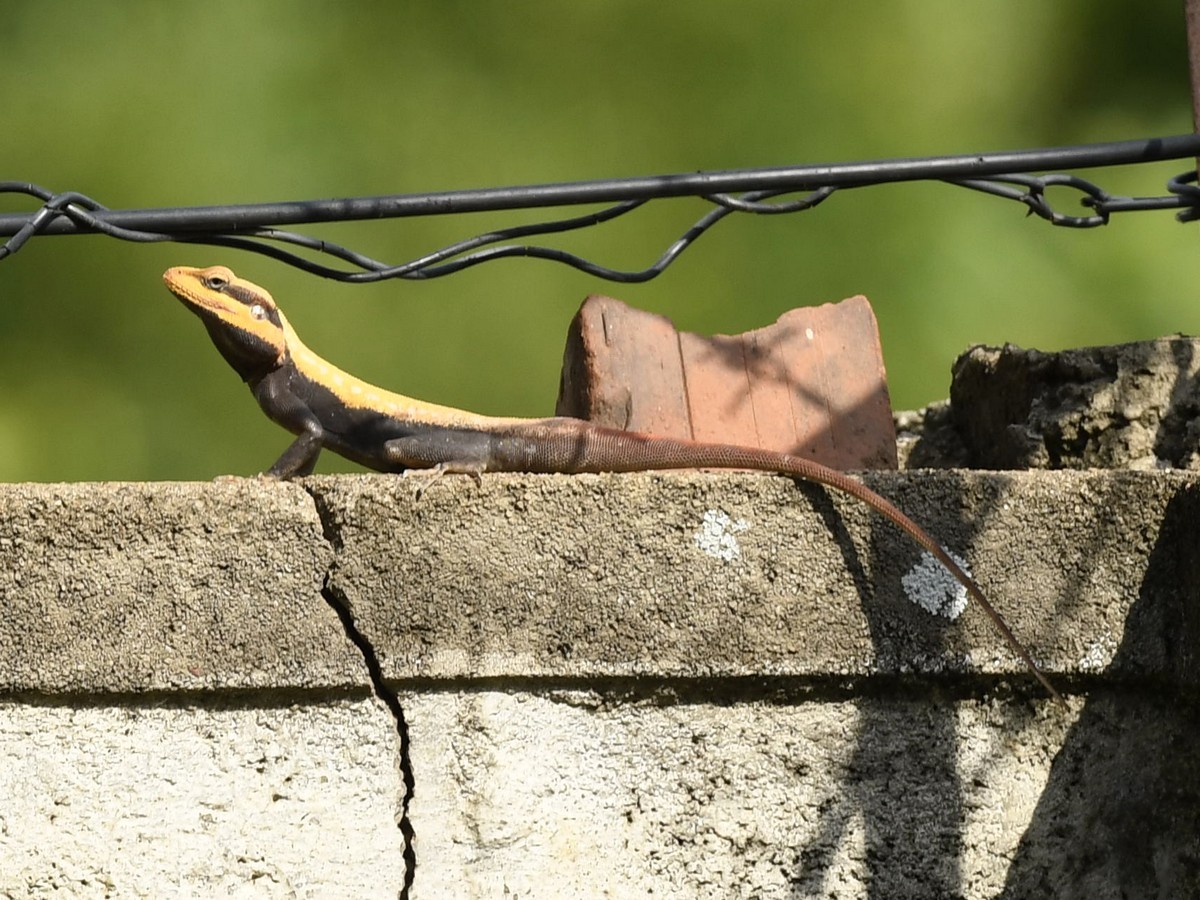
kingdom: Animalia
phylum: Chordata
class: Squamata
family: Agamidae
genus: Psammophilus
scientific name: Psammophilus dorsalis
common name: South indian rock agama
